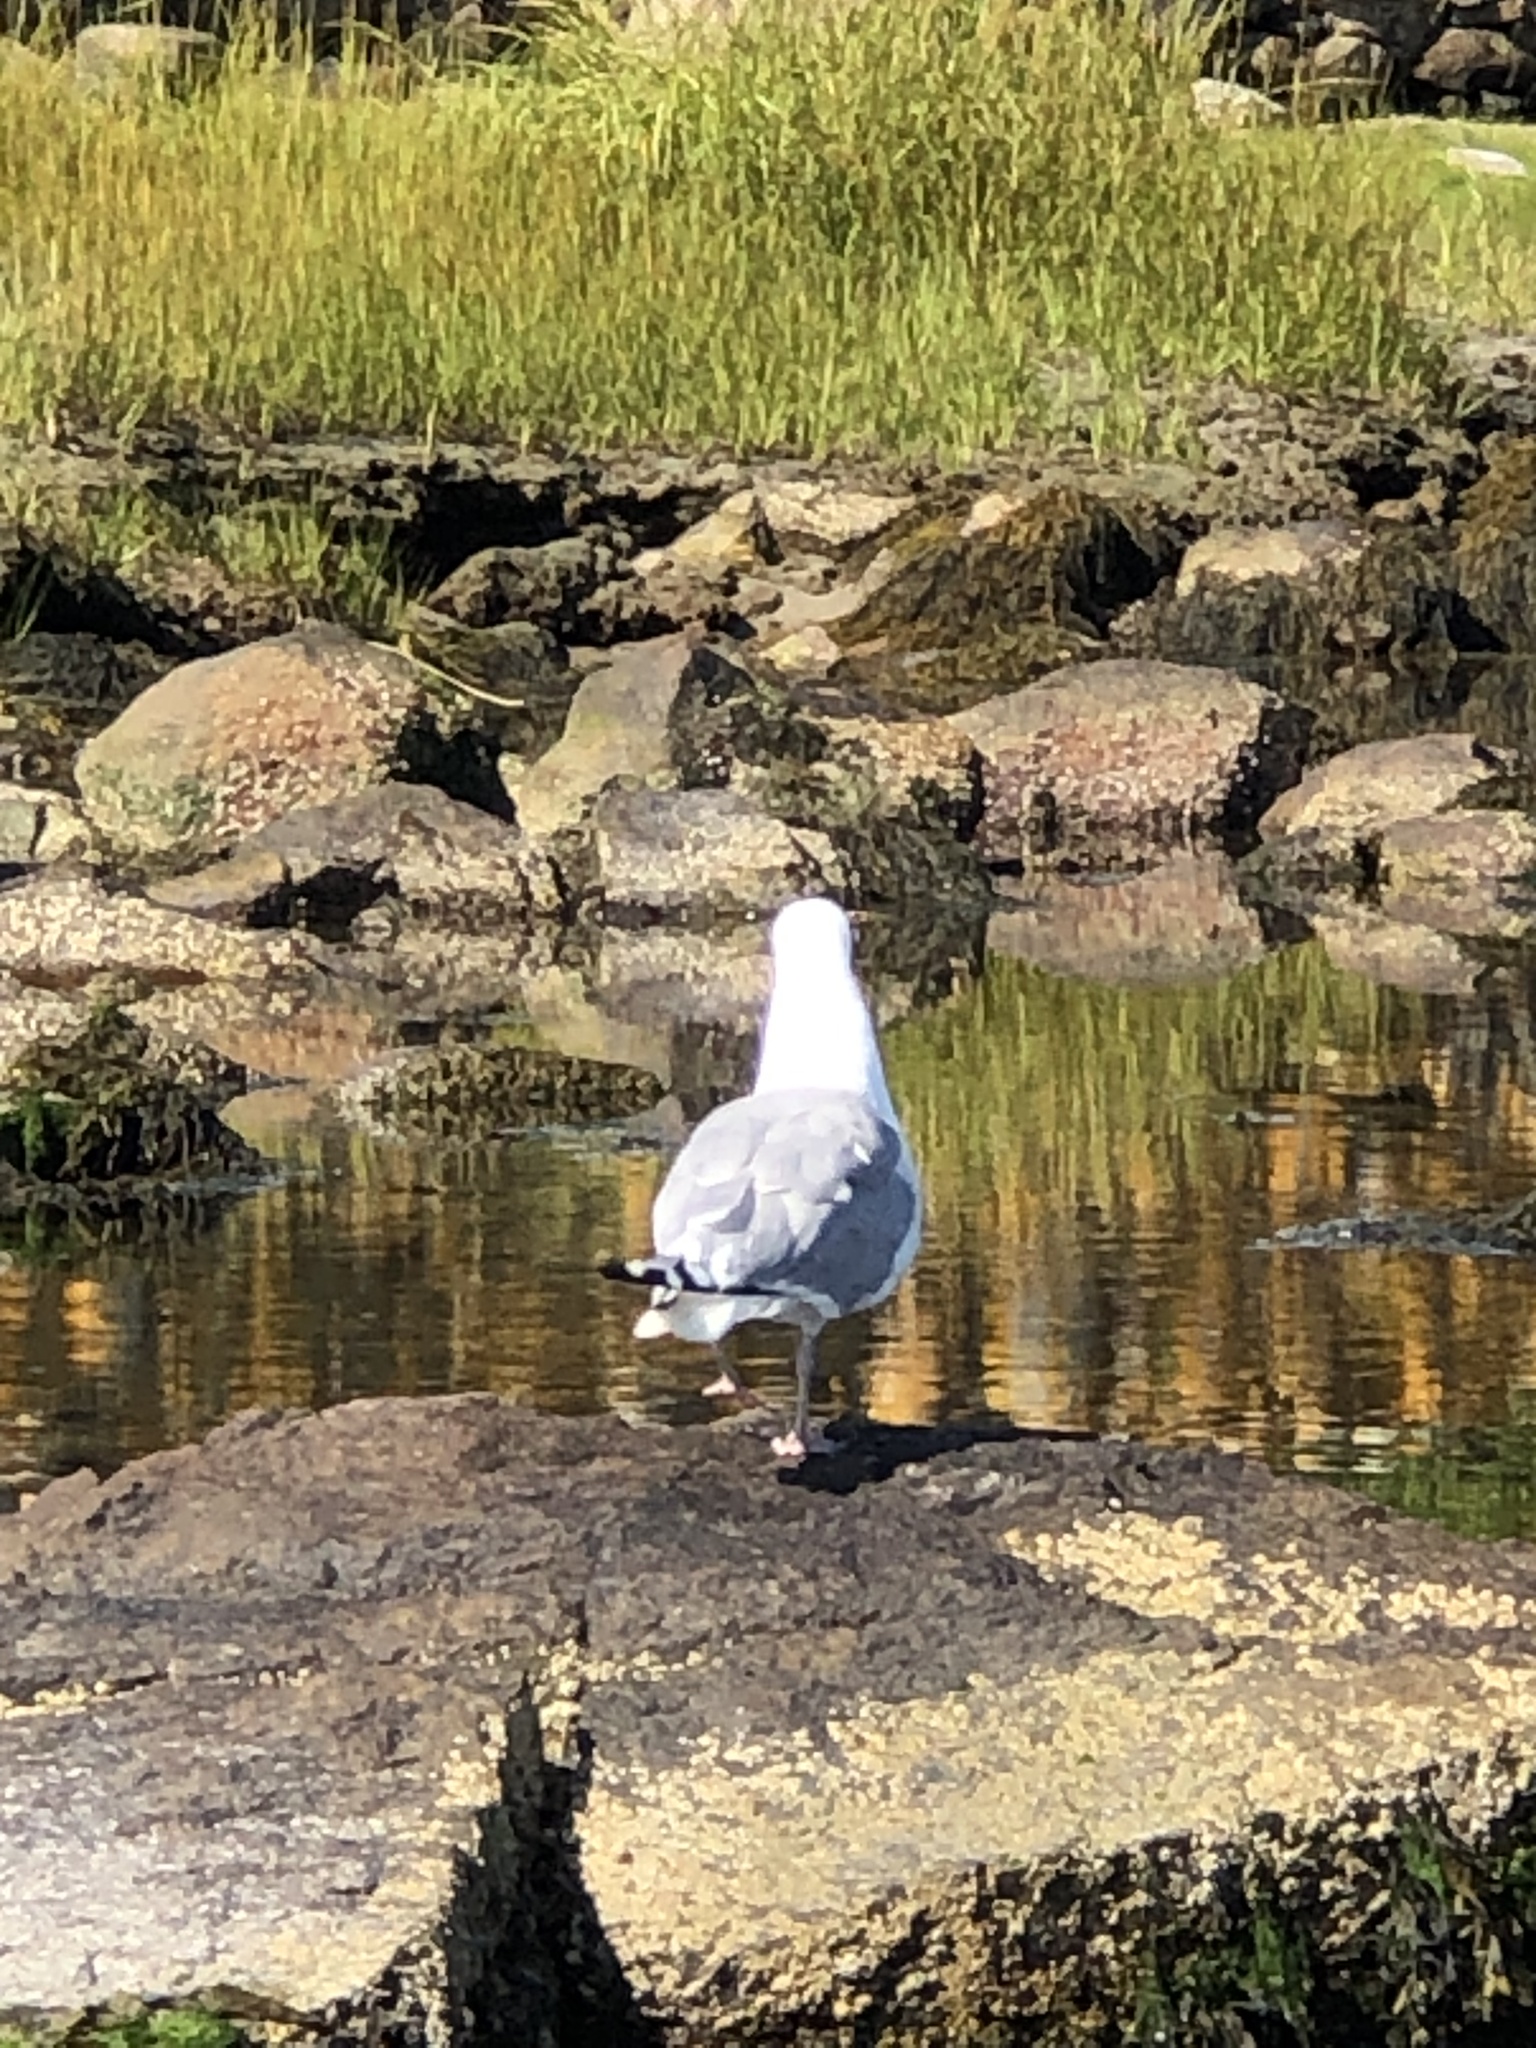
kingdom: Animalia
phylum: Chordata
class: Aves
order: Charadriiformes
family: Laridae
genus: Larus
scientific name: Larus argentatus
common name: Herring gull
